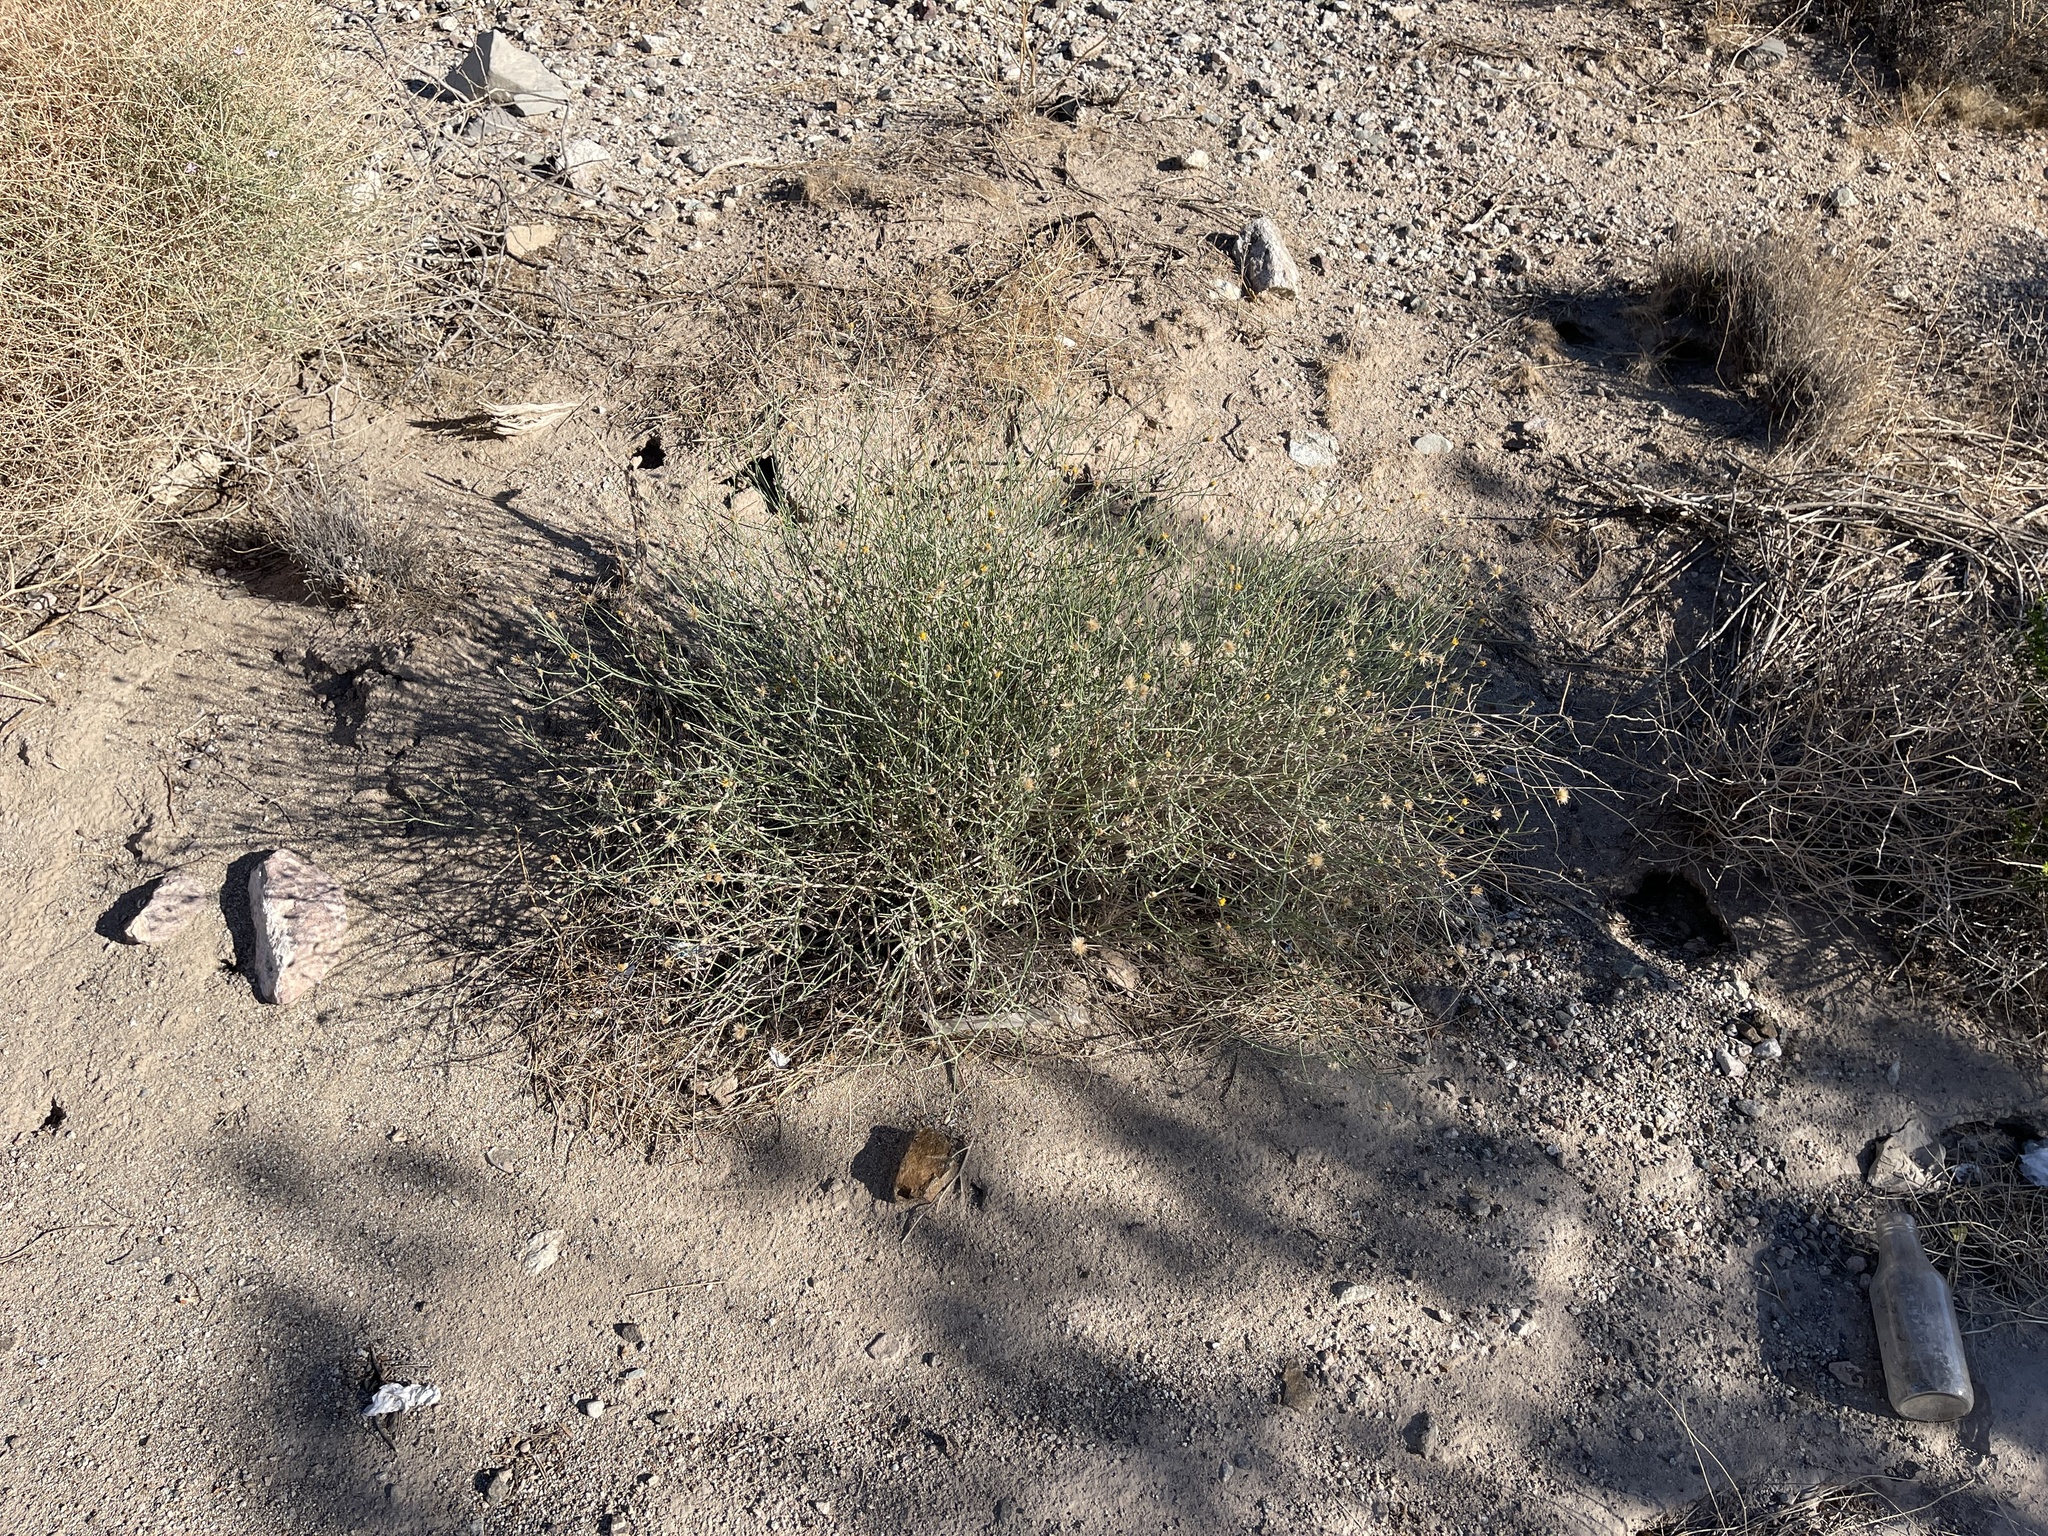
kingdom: Plantae
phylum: Tracheophyta
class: Magnoliopsida
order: Asterales
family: Asteraceae
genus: Bebbia
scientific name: Bebbia juncea
